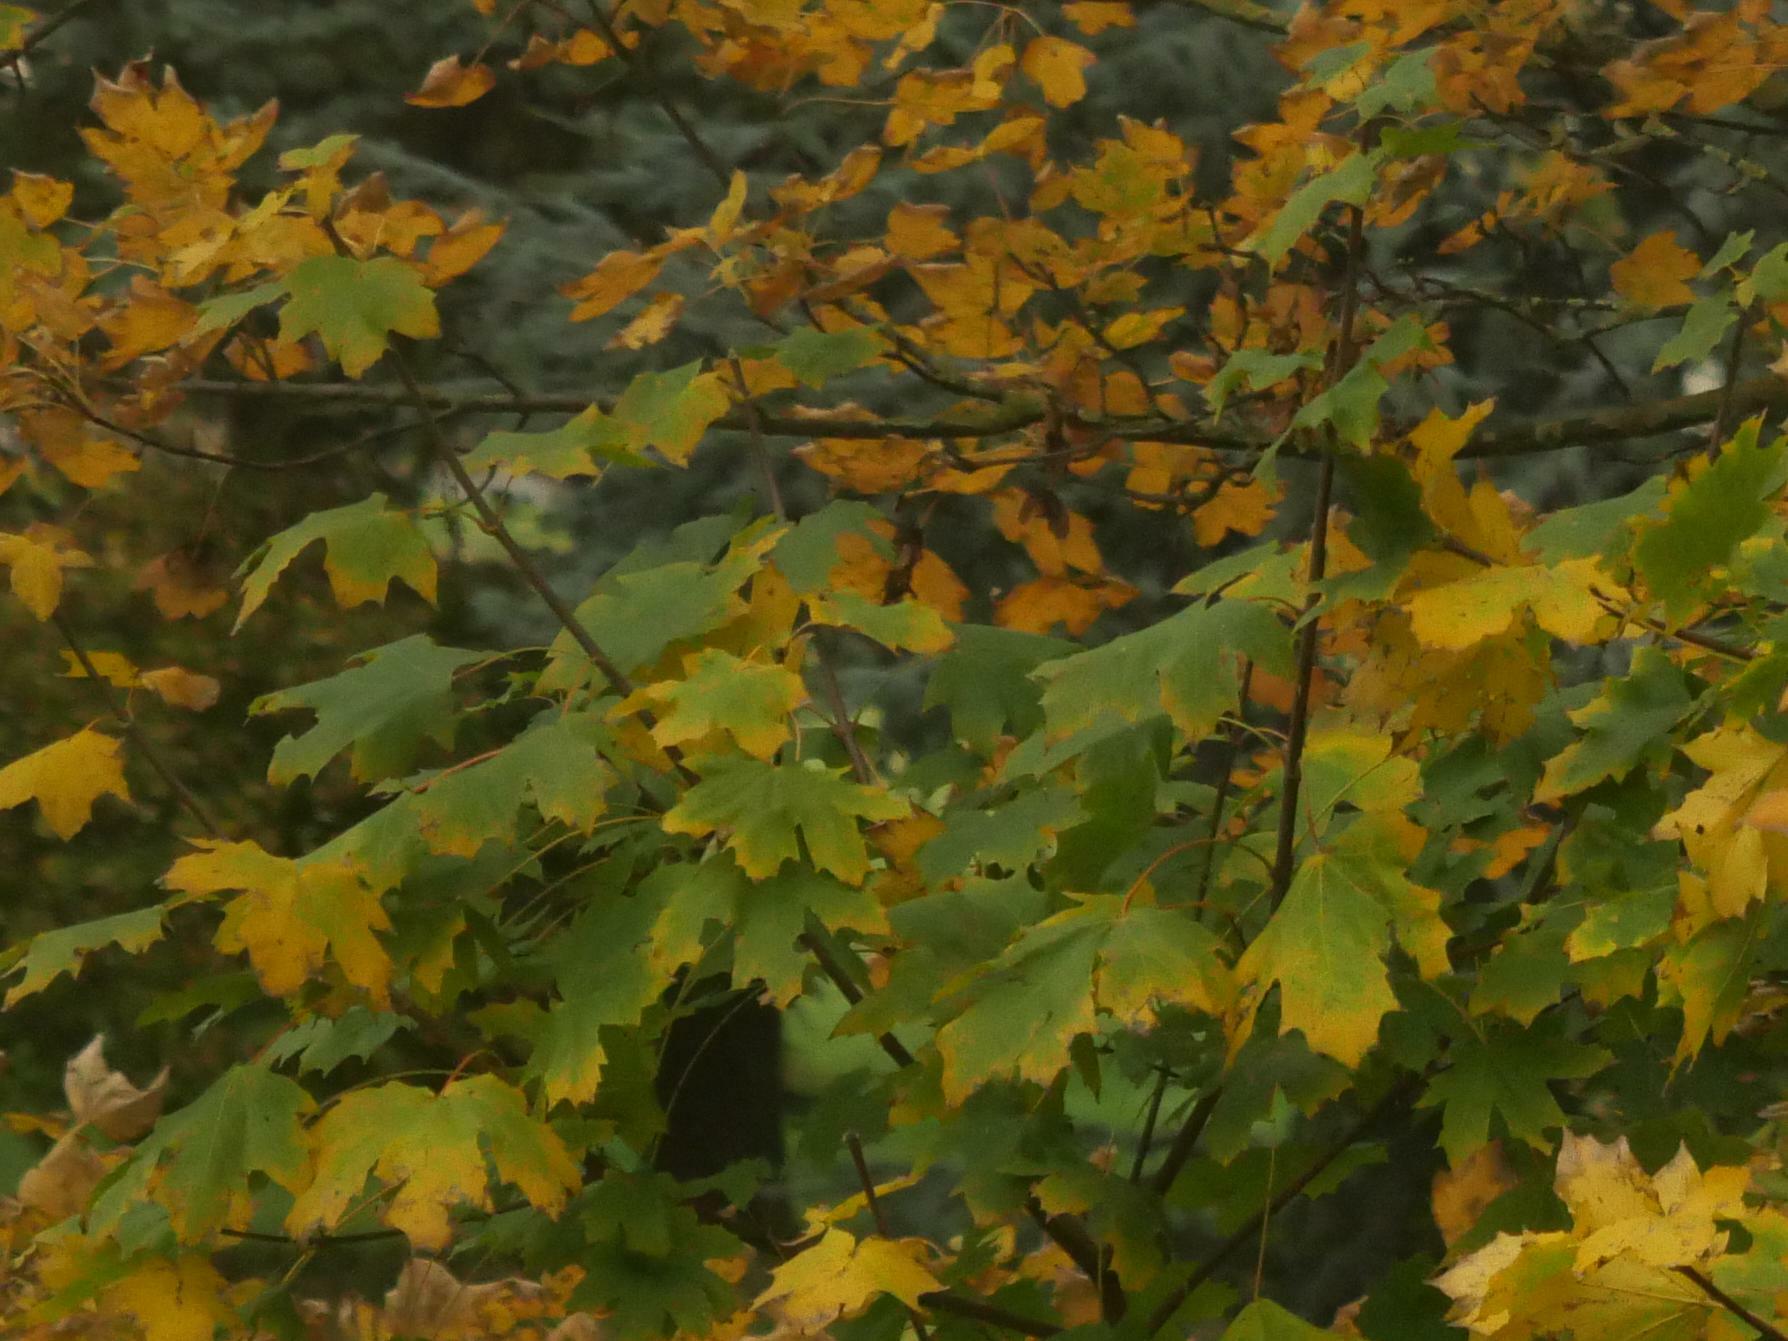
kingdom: Plantae
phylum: Tracheophyta
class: Magnoliopsida
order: Sapindales
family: Sapindaceae
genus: Acer
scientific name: Acer platanoides
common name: Norway maple
